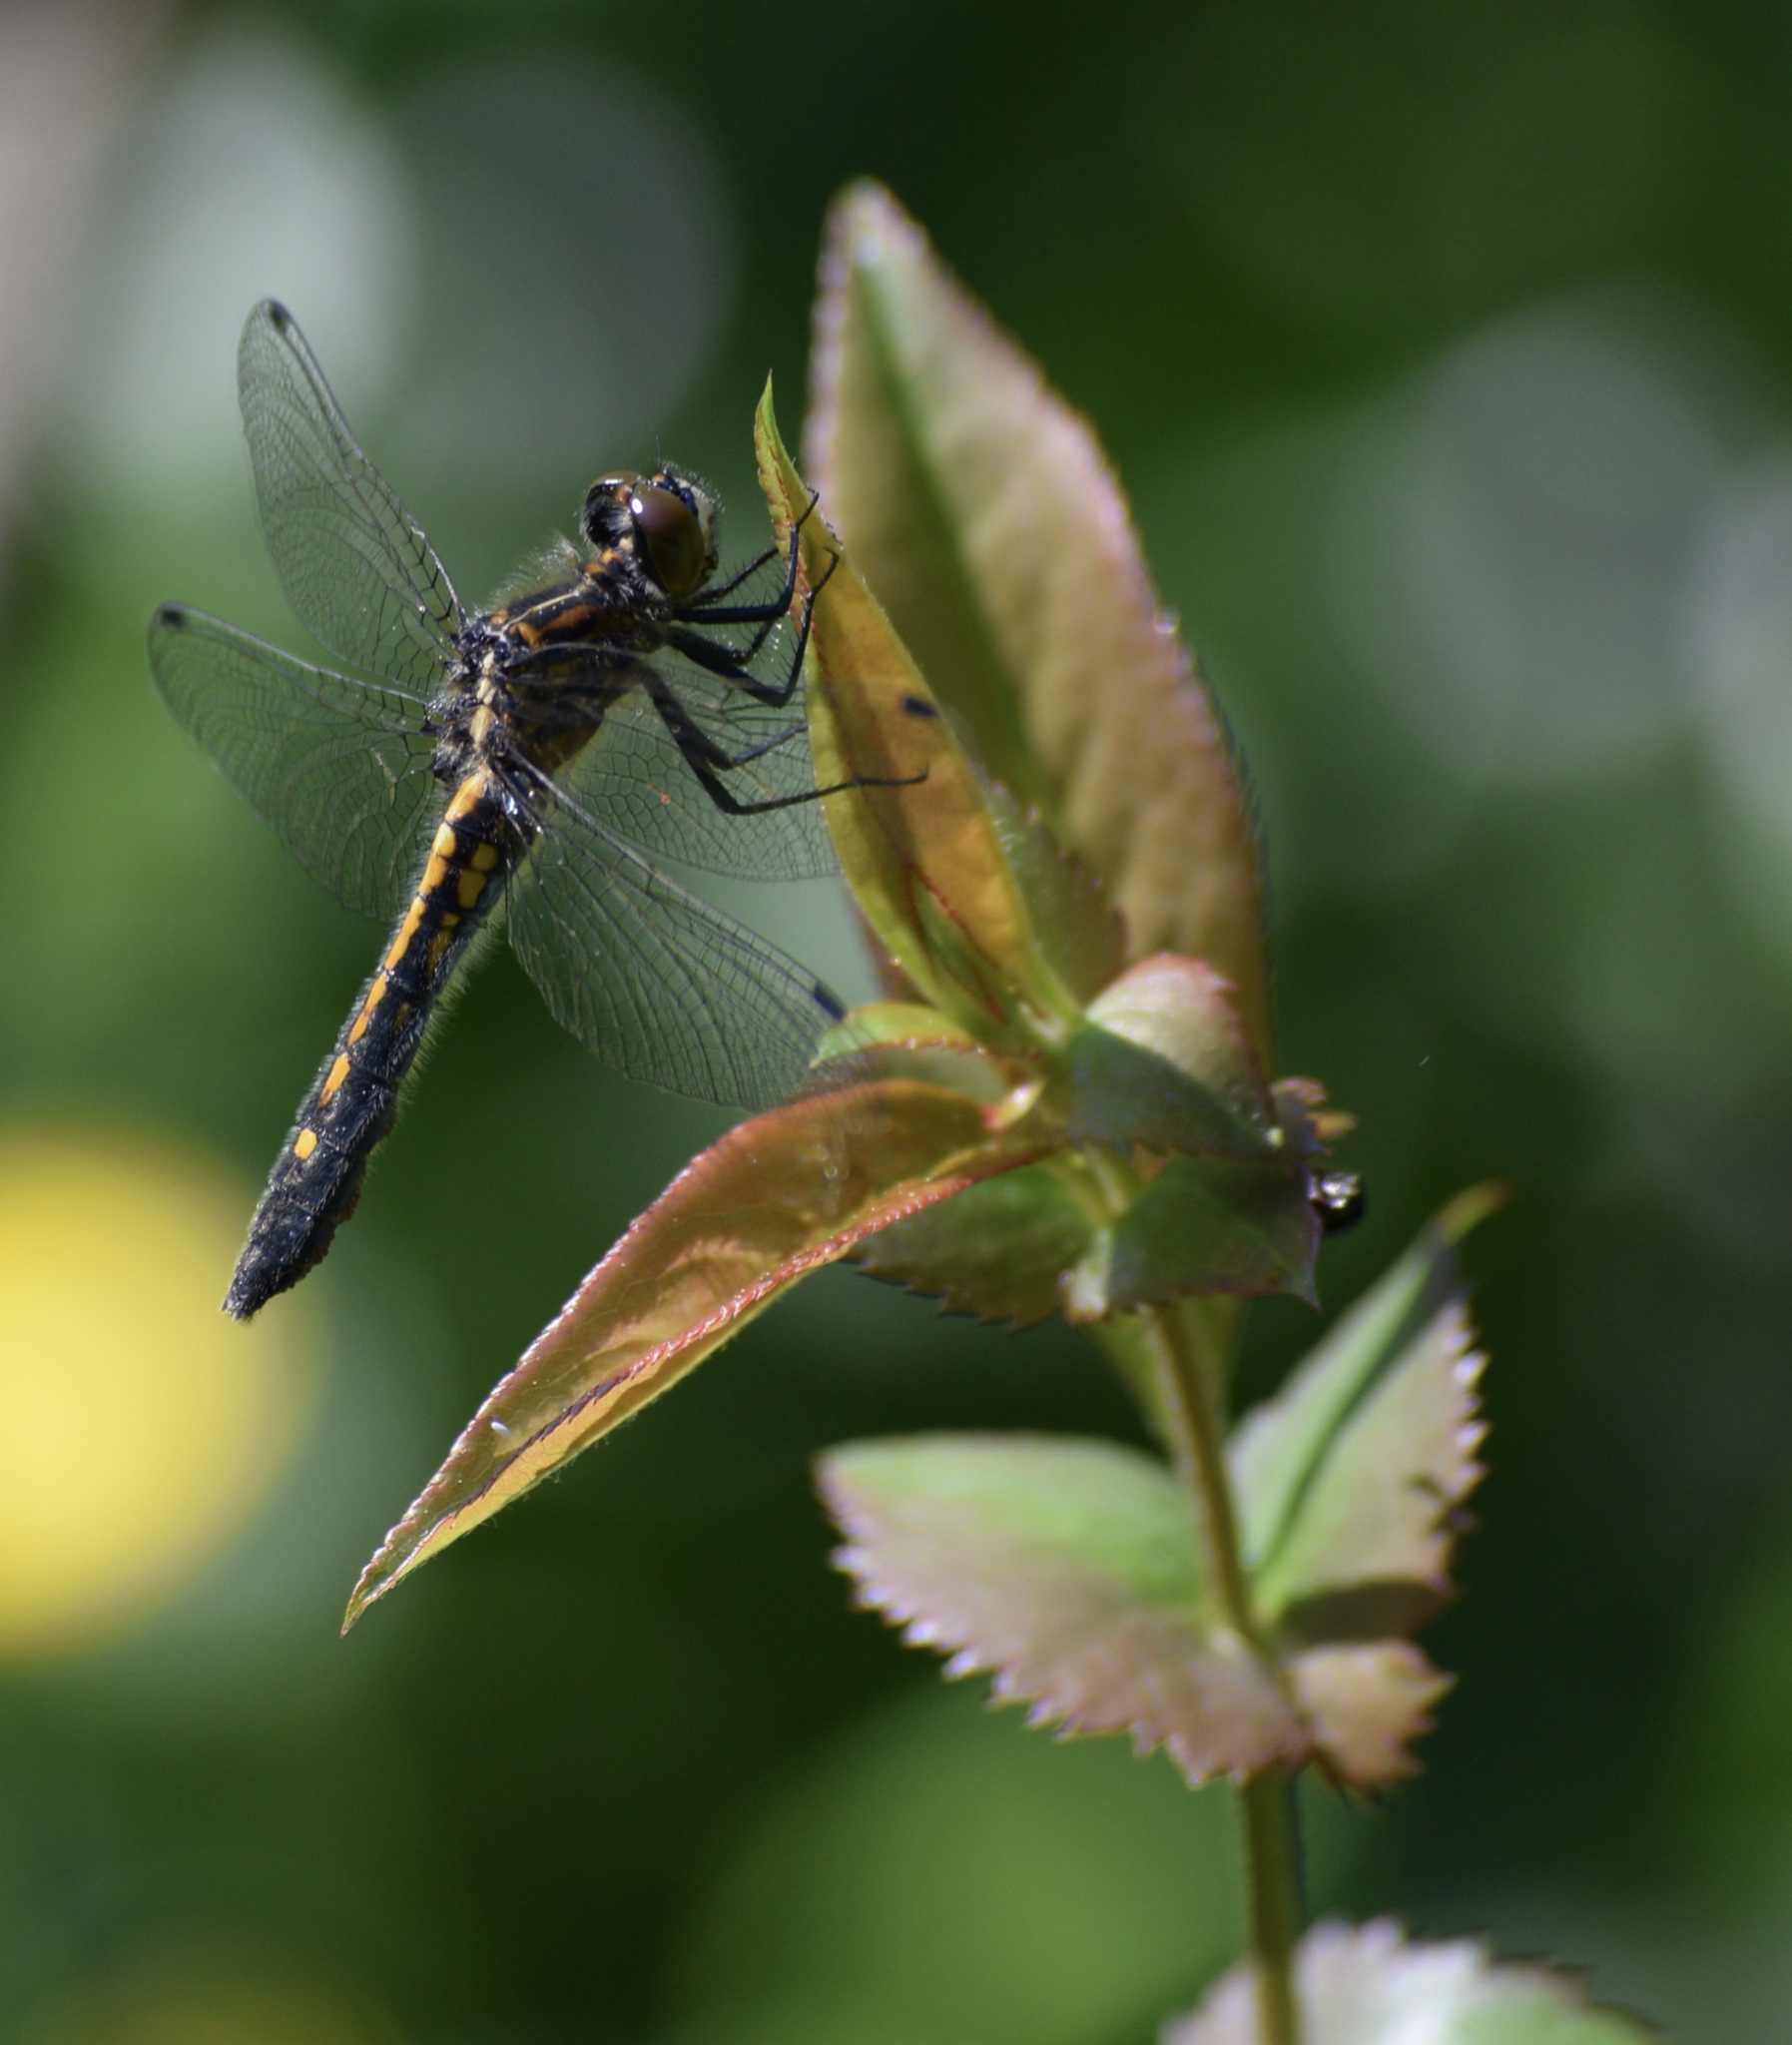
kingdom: Animalia
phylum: Arthropoda
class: Insecta
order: Odonata
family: Libellulidae
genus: Leucorrhinia
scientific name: Leucorrhinia intacta
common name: Dot-tailed whiteface
